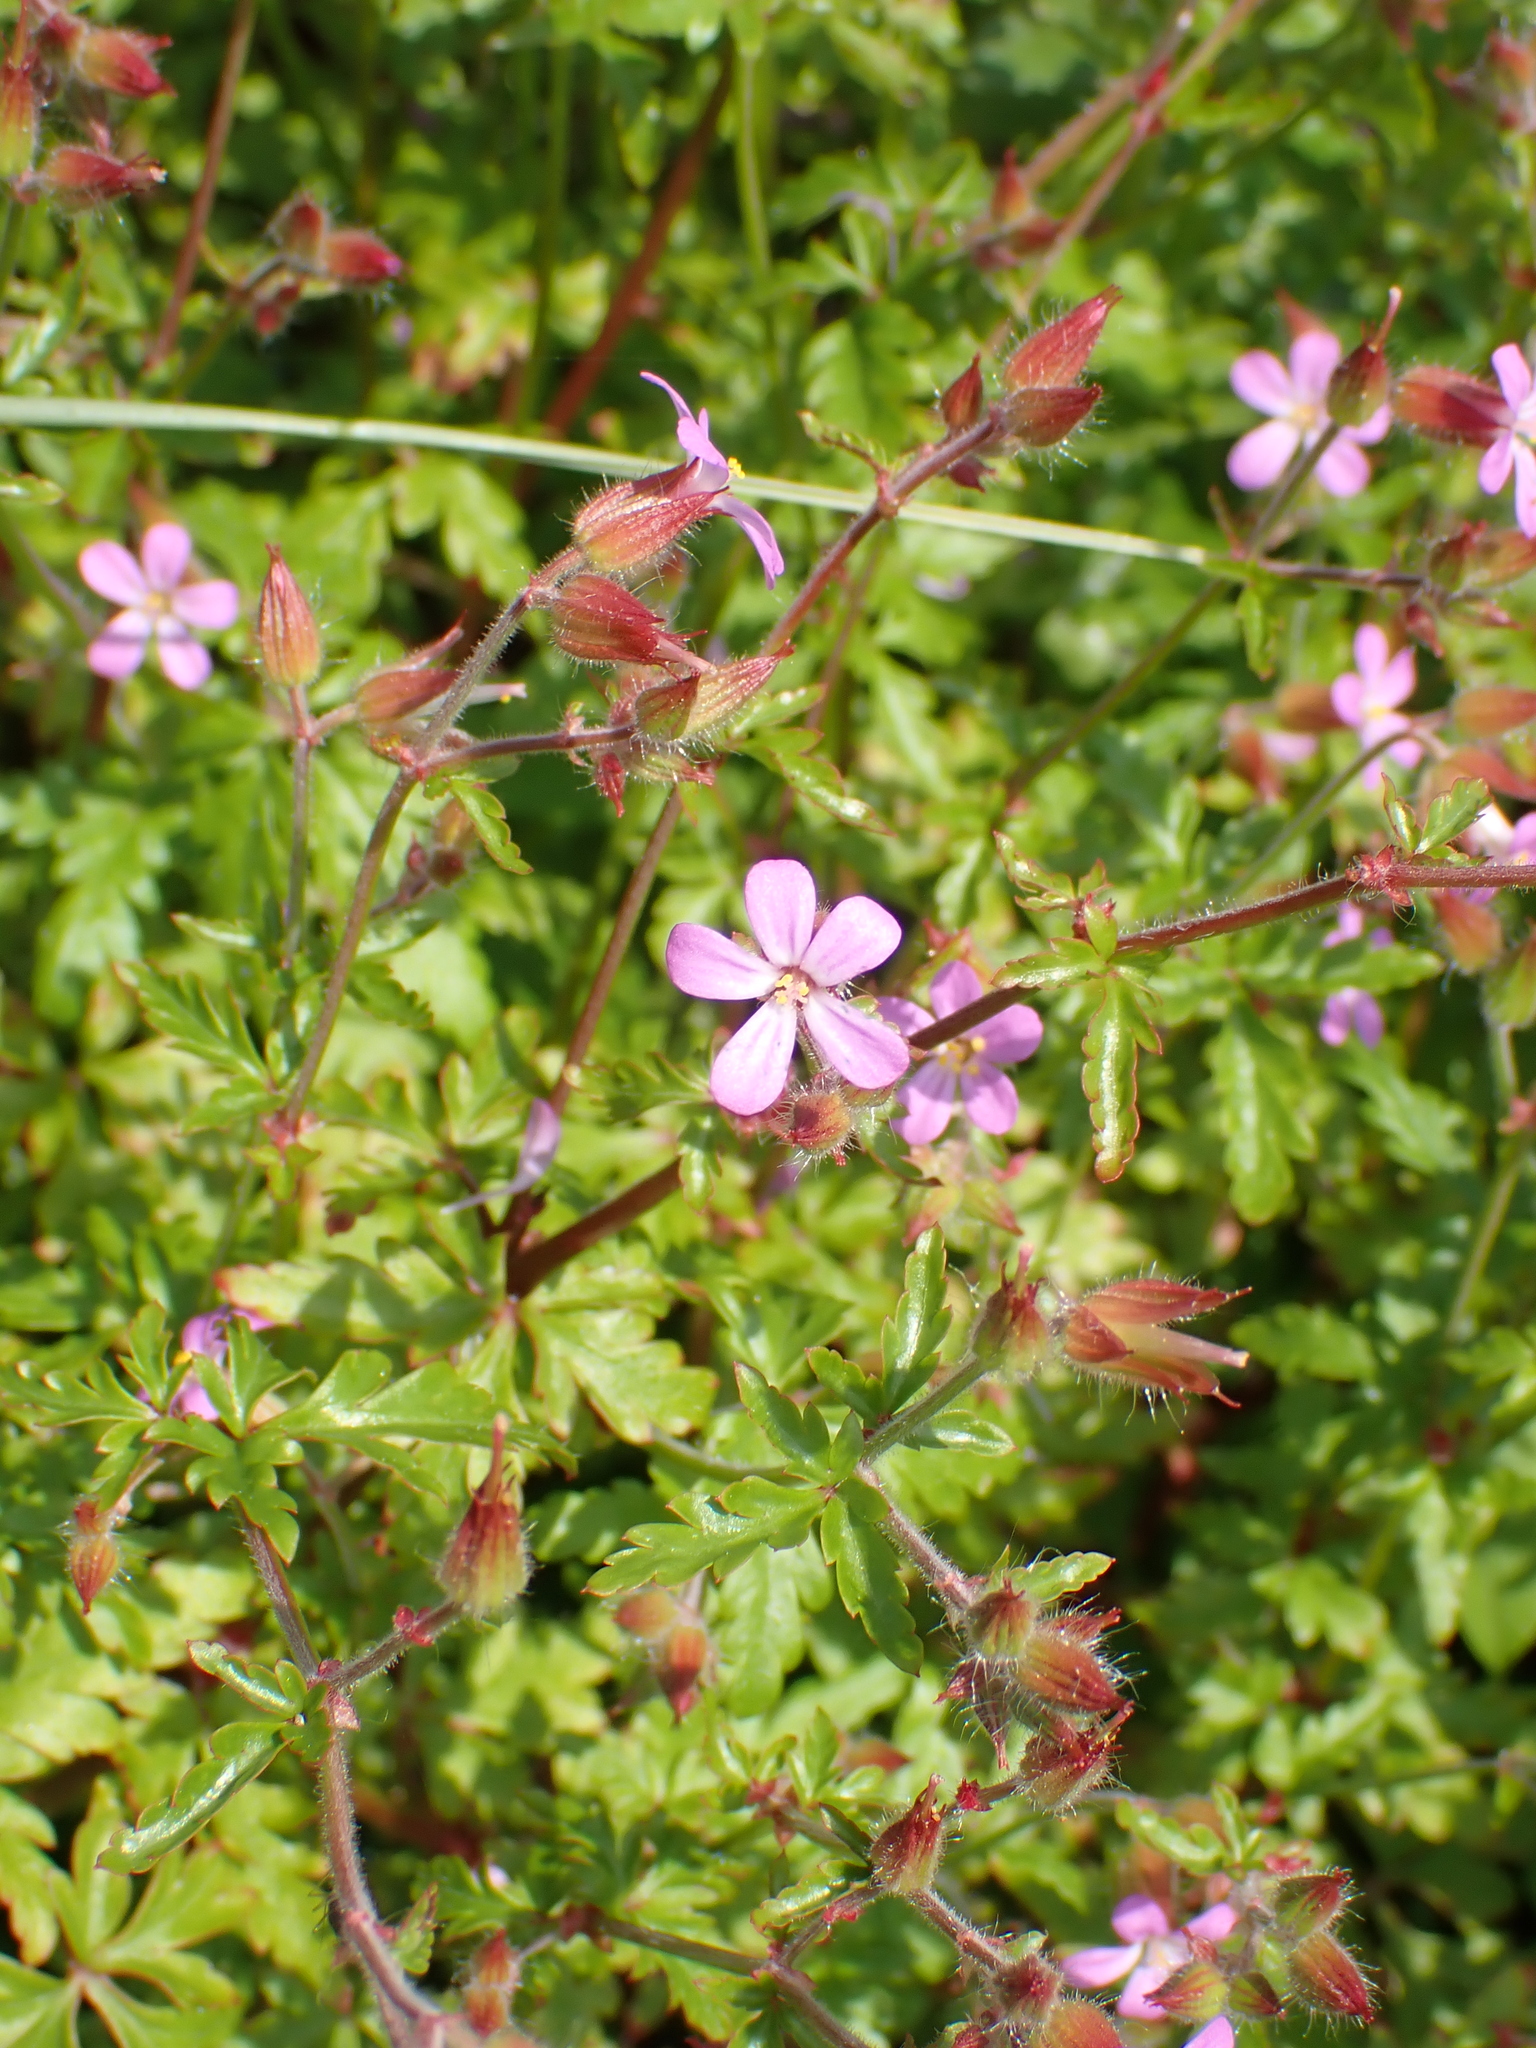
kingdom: Plantae
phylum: Tracheophyta
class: Magnoliopsida
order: Geraniales
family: Geraniaceae
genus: Geranium
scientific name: Geranium purpureum
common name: Little-robin
